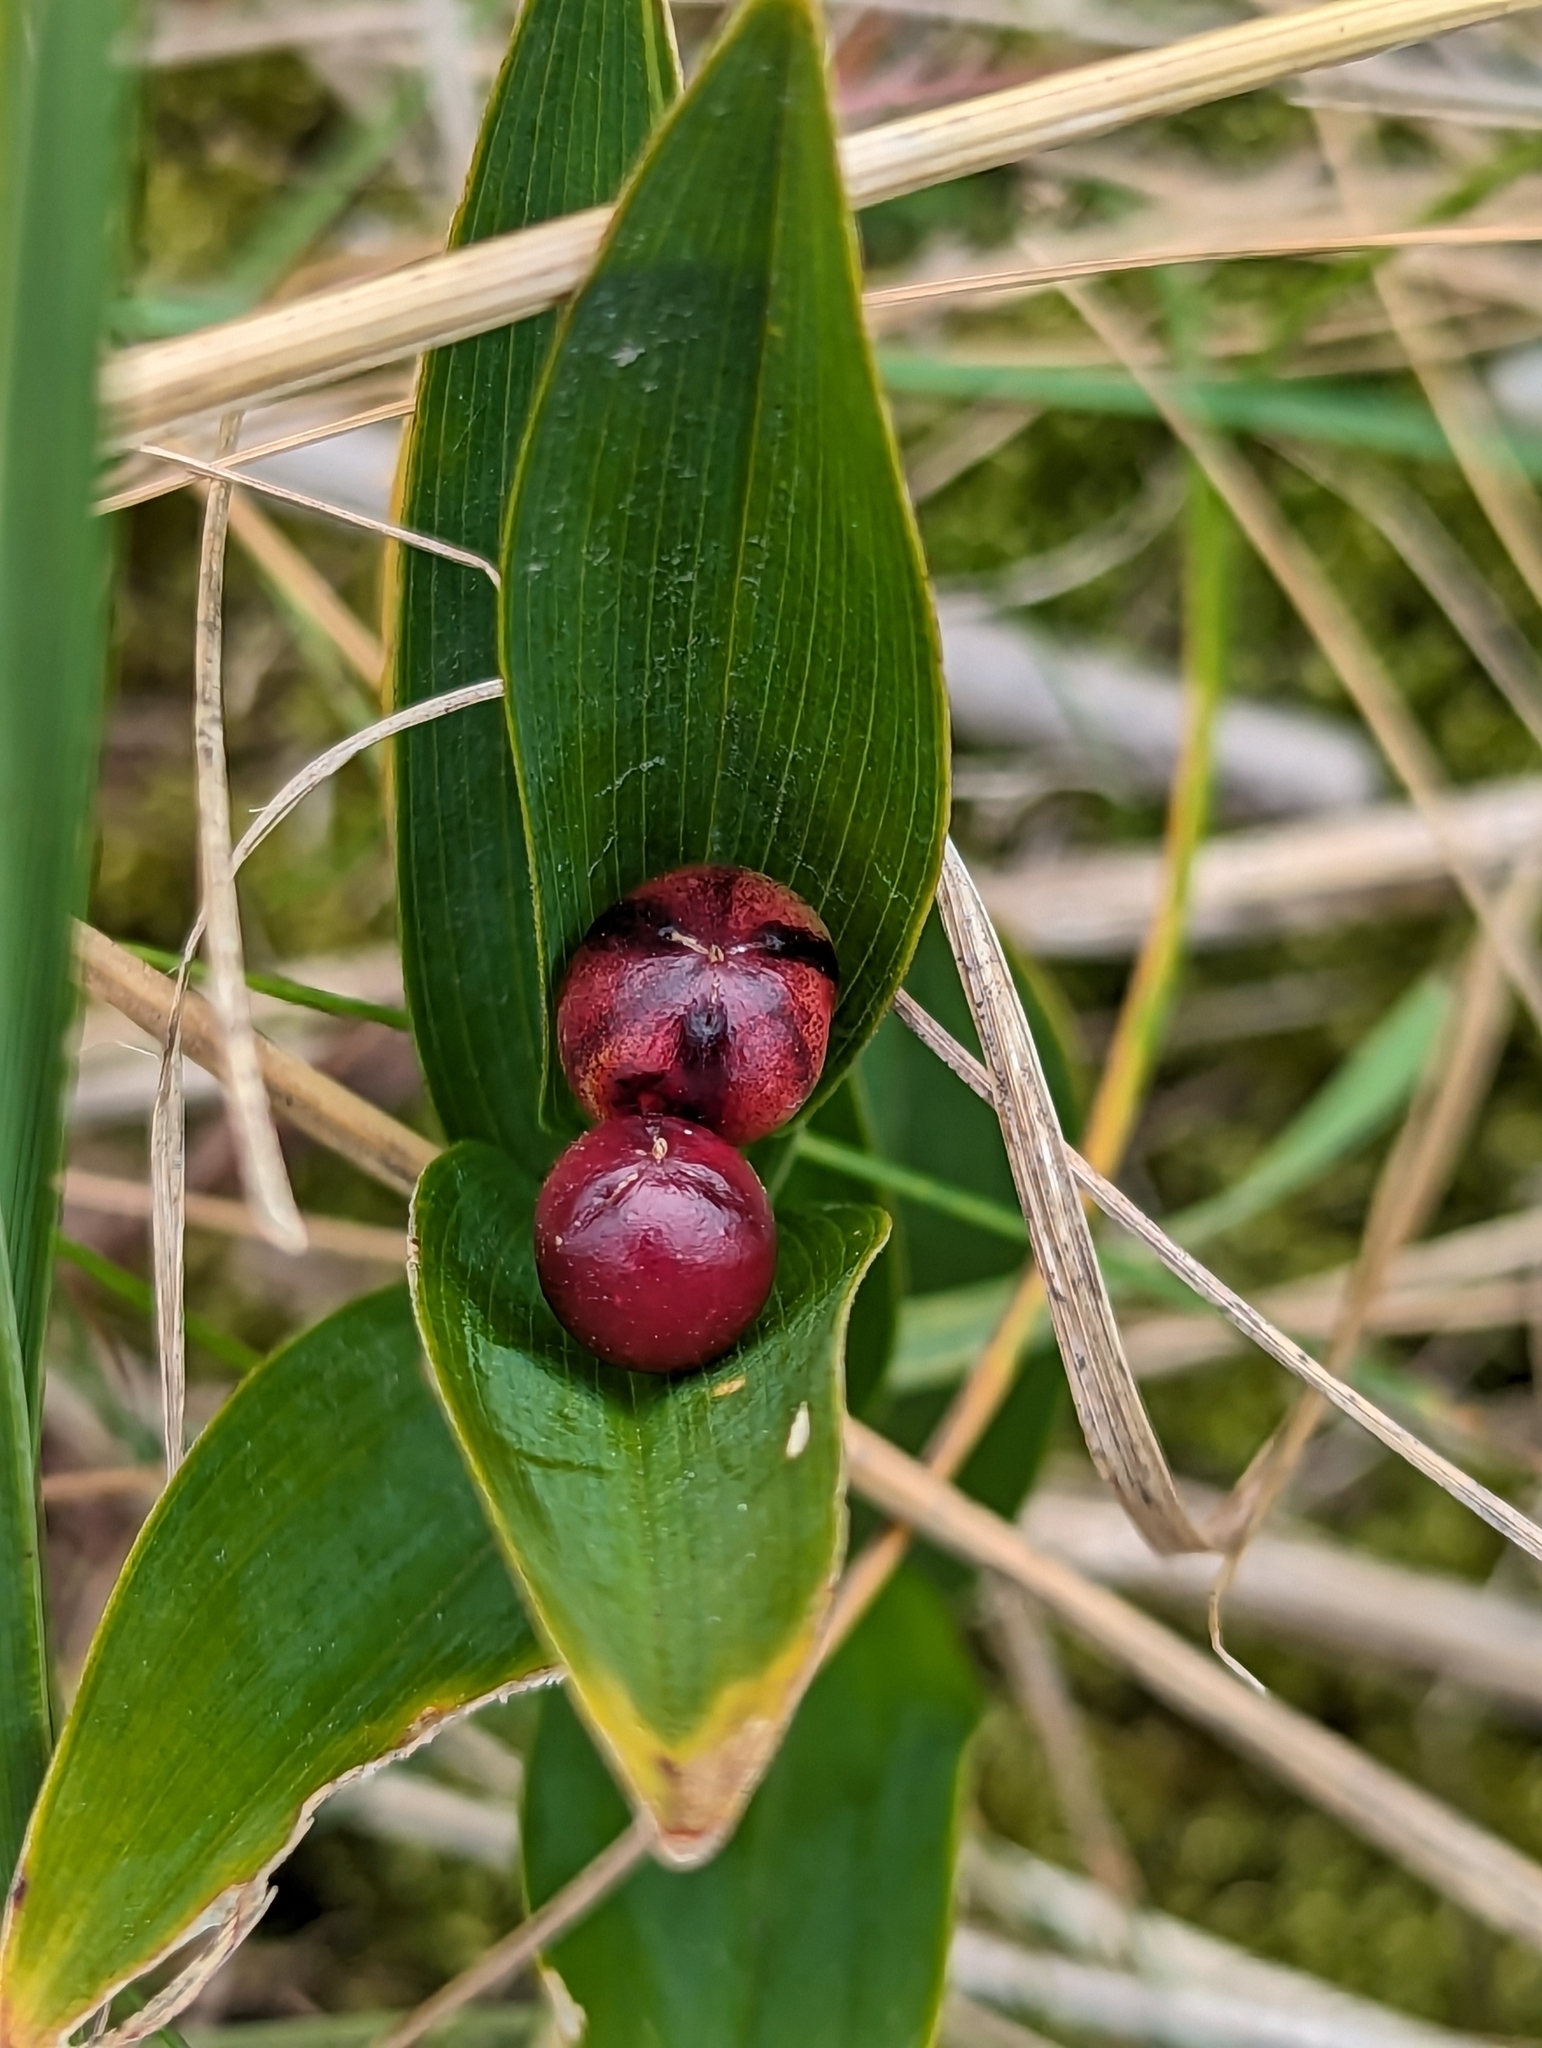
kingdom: Plantae
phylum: Tracheophyta
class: Liliopsida
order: Asparagales
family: Asparagaceae
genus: Maianthemum
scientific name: Maianthemum stellatum
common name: Little false solomon's seal
